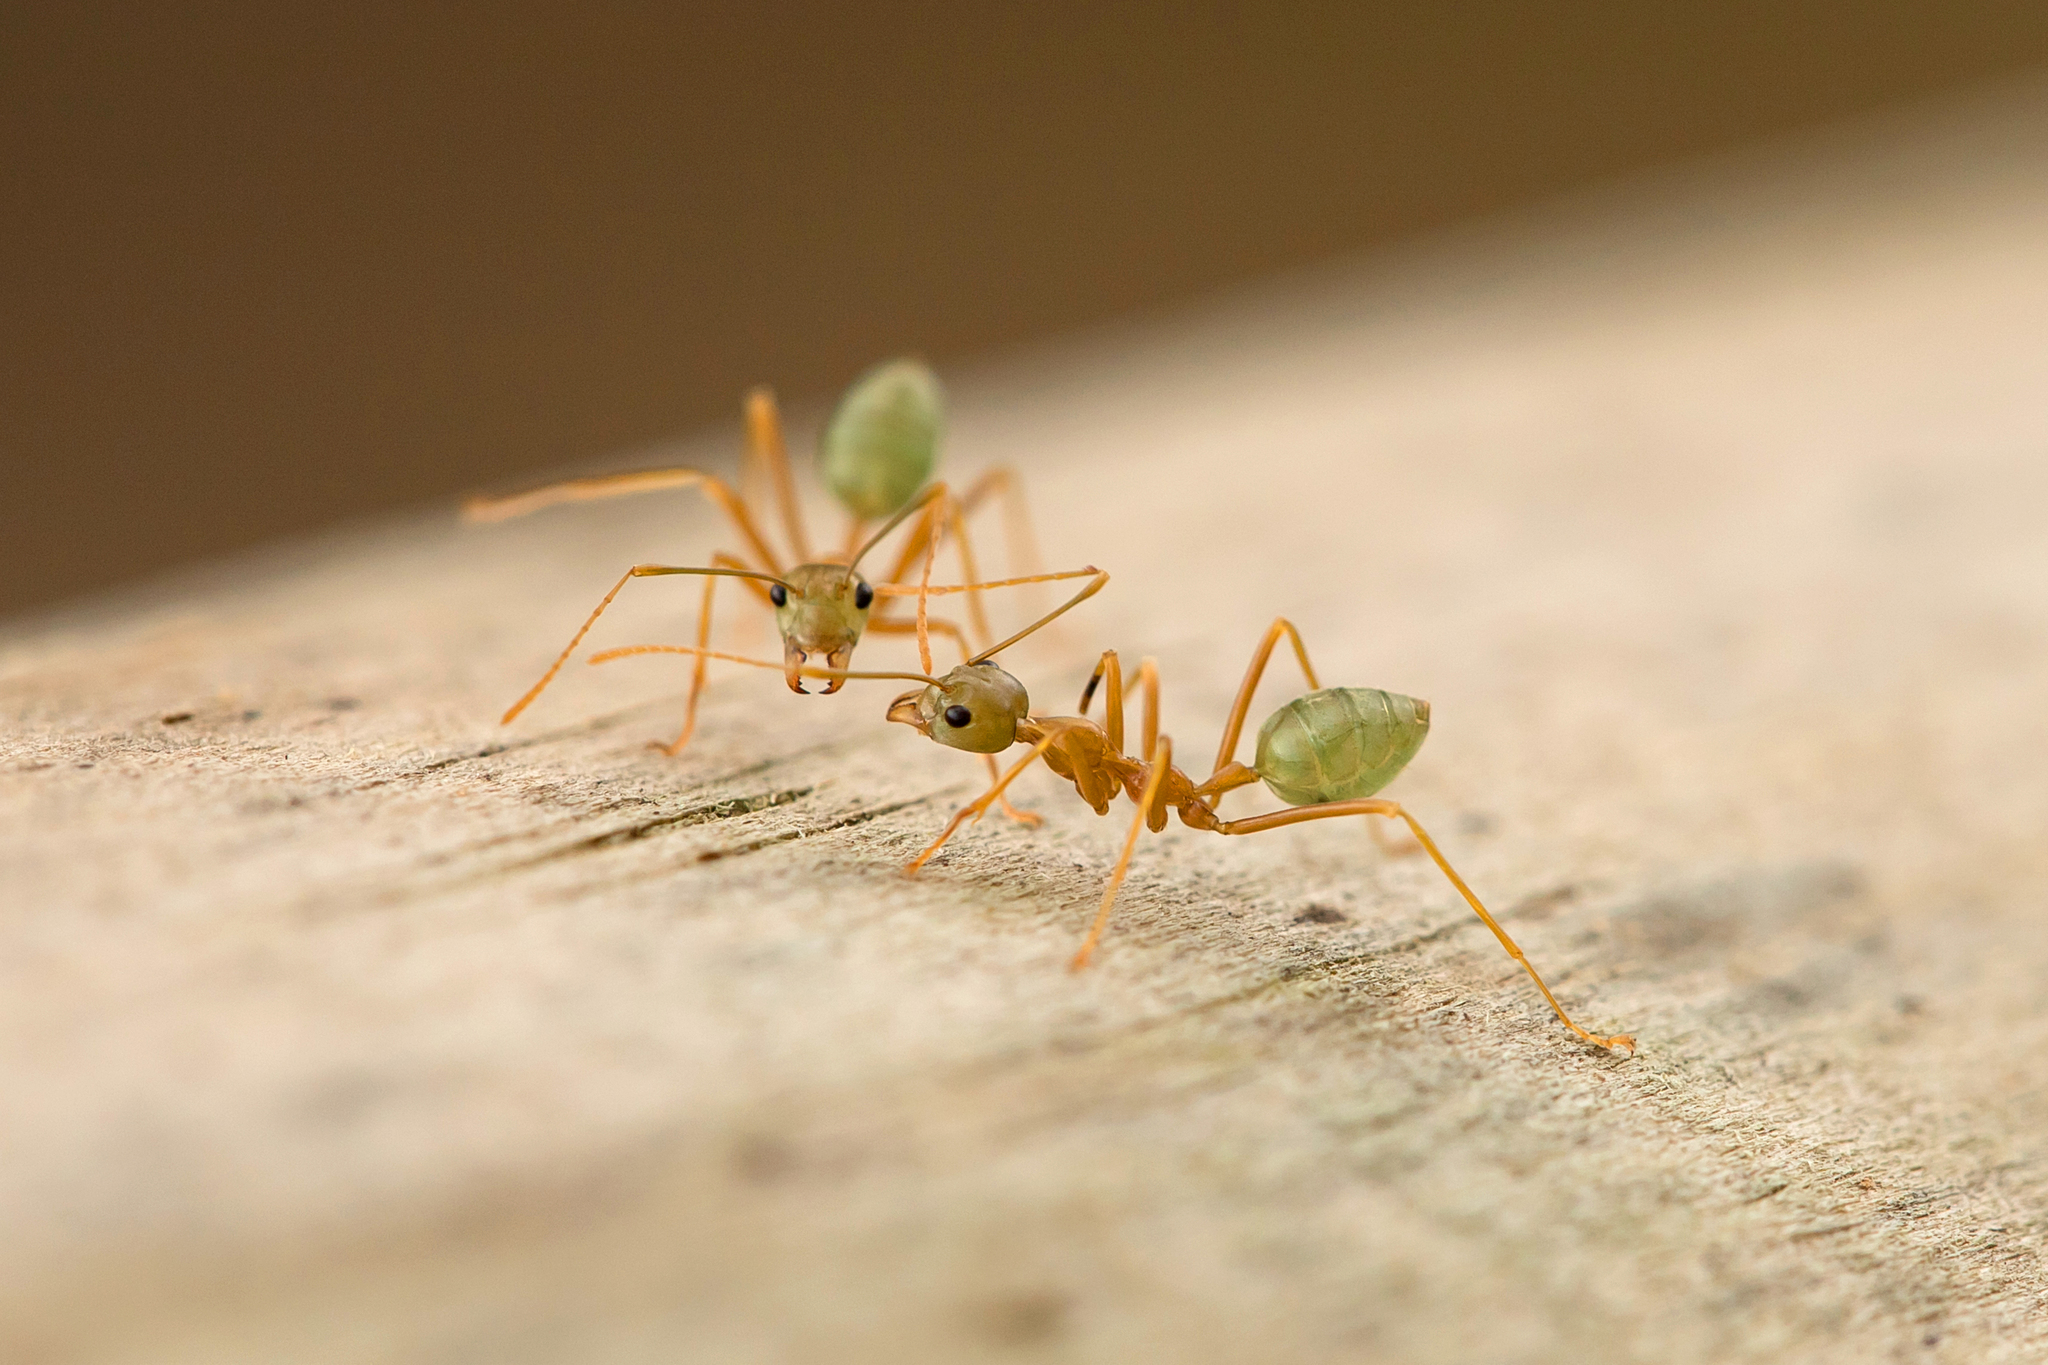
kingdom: Animalia
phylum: Arthropoda
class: Insecta
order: Hymenoptera
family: Formicidae
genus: Oecophylla
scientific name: Oecophylla smaragdina
